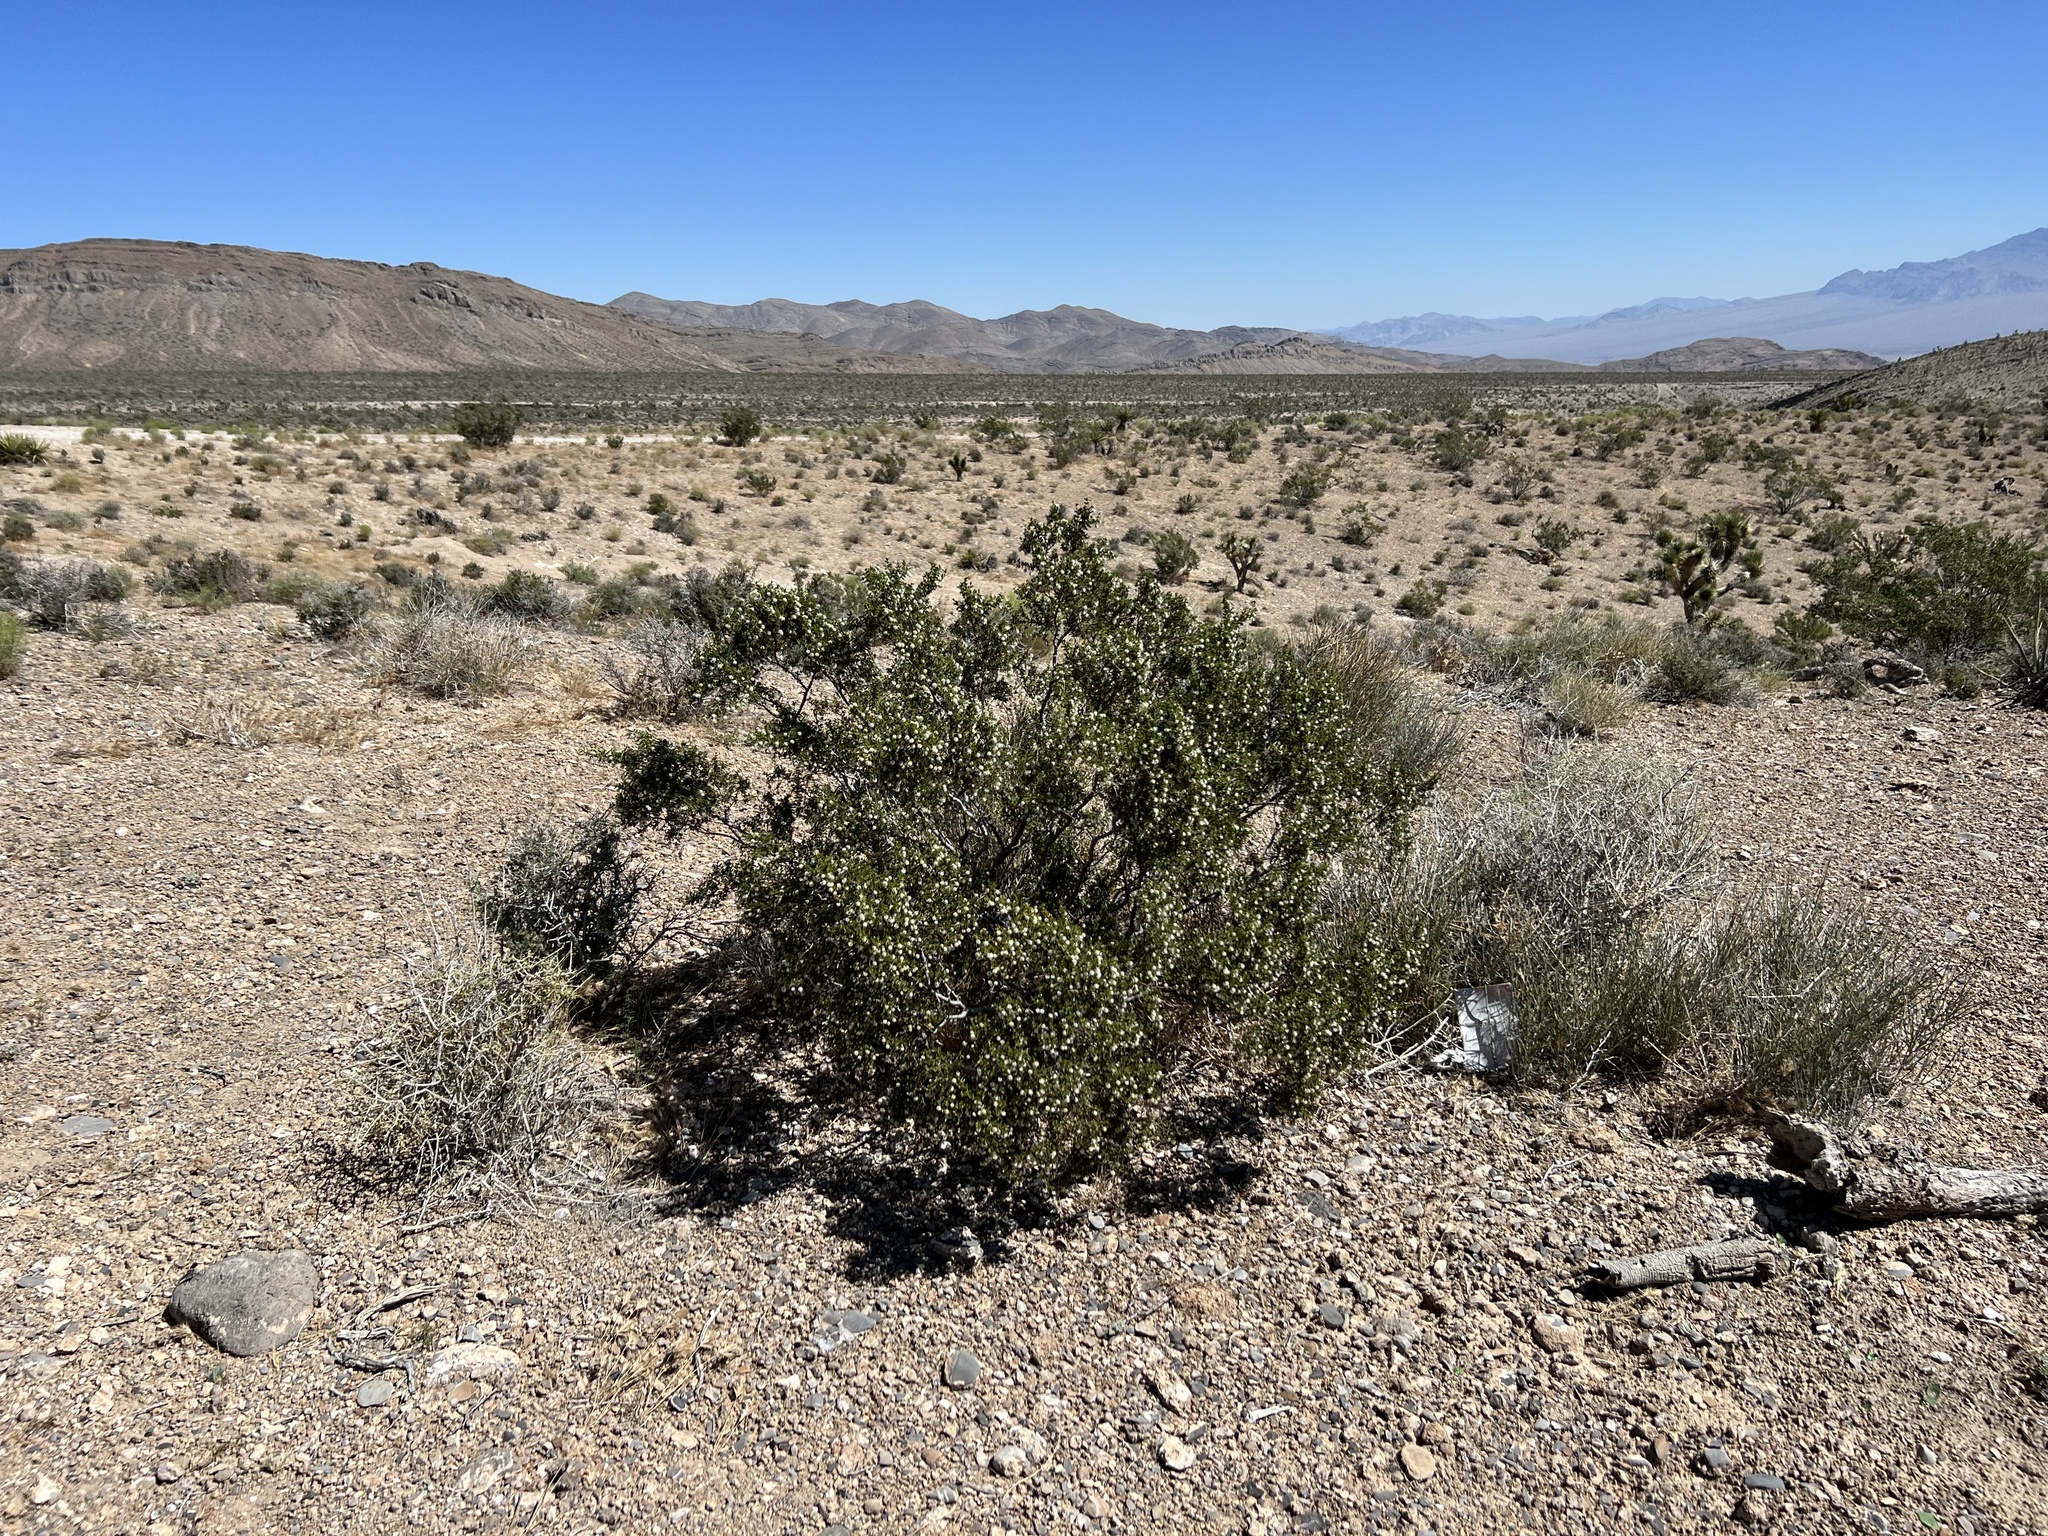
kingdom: Plantae
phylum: Tracheophyta
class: Magnoliopsida
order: Zygophyllales
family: Zygophyllaceae
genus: Larrea
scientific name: Larrea tridentata
